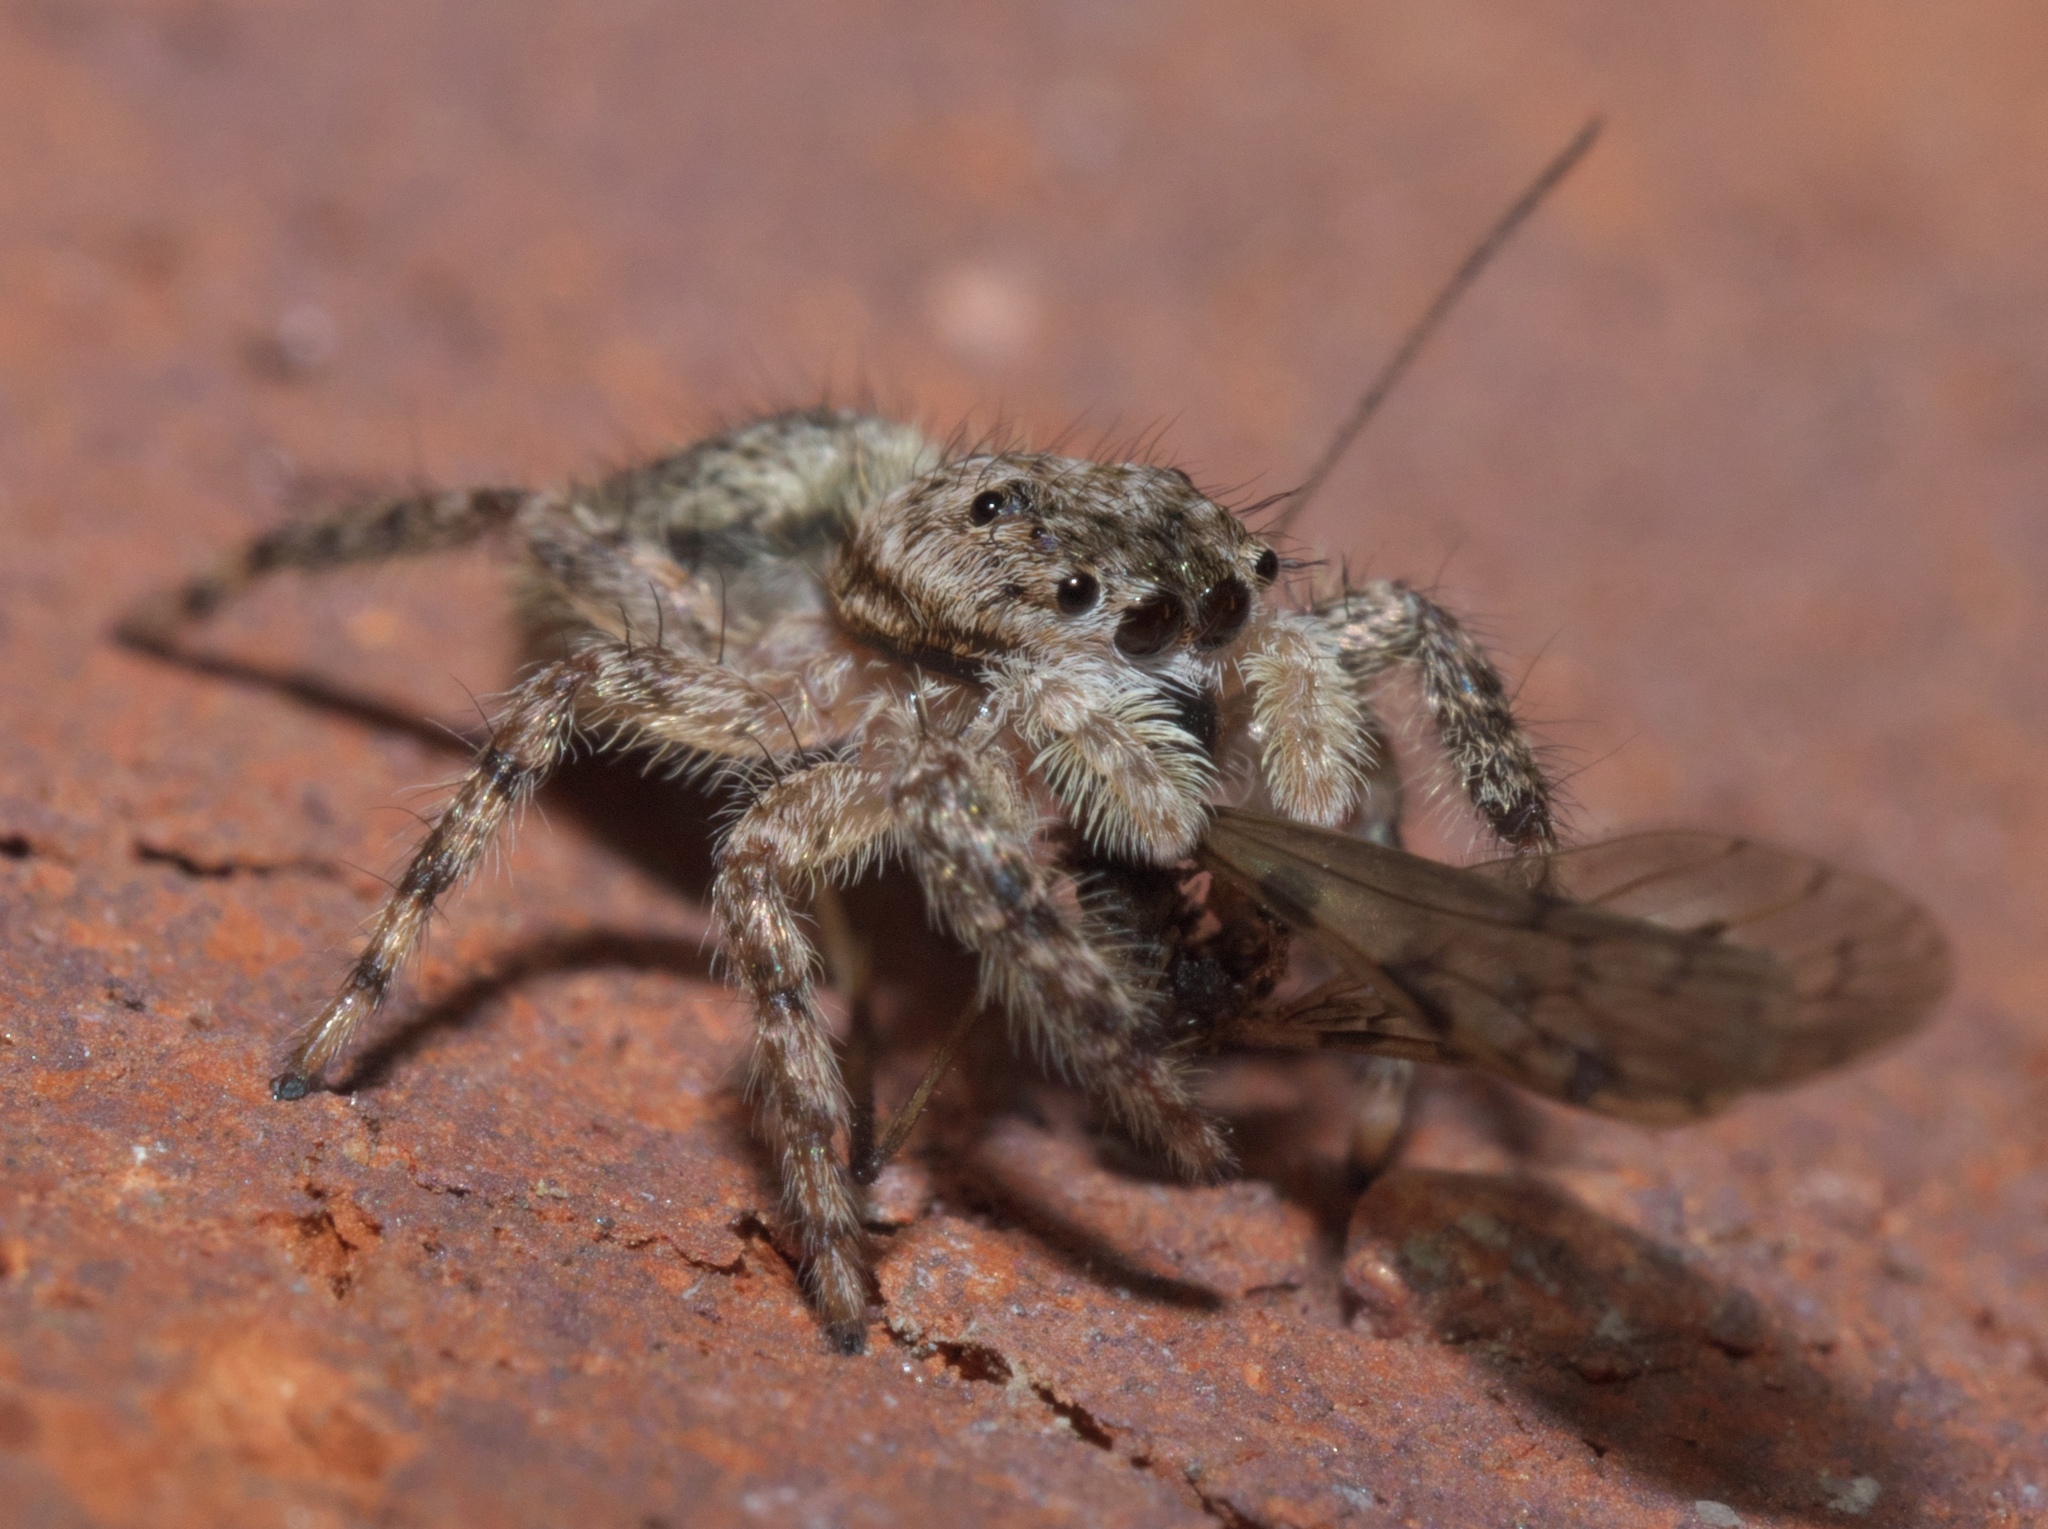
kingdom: Animalia
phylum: Arthropoda
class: Arachnida
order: Araneae
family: Salticidae
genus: Platycryptus
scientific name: Platycryptus undatus
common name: Tan jumping spider
